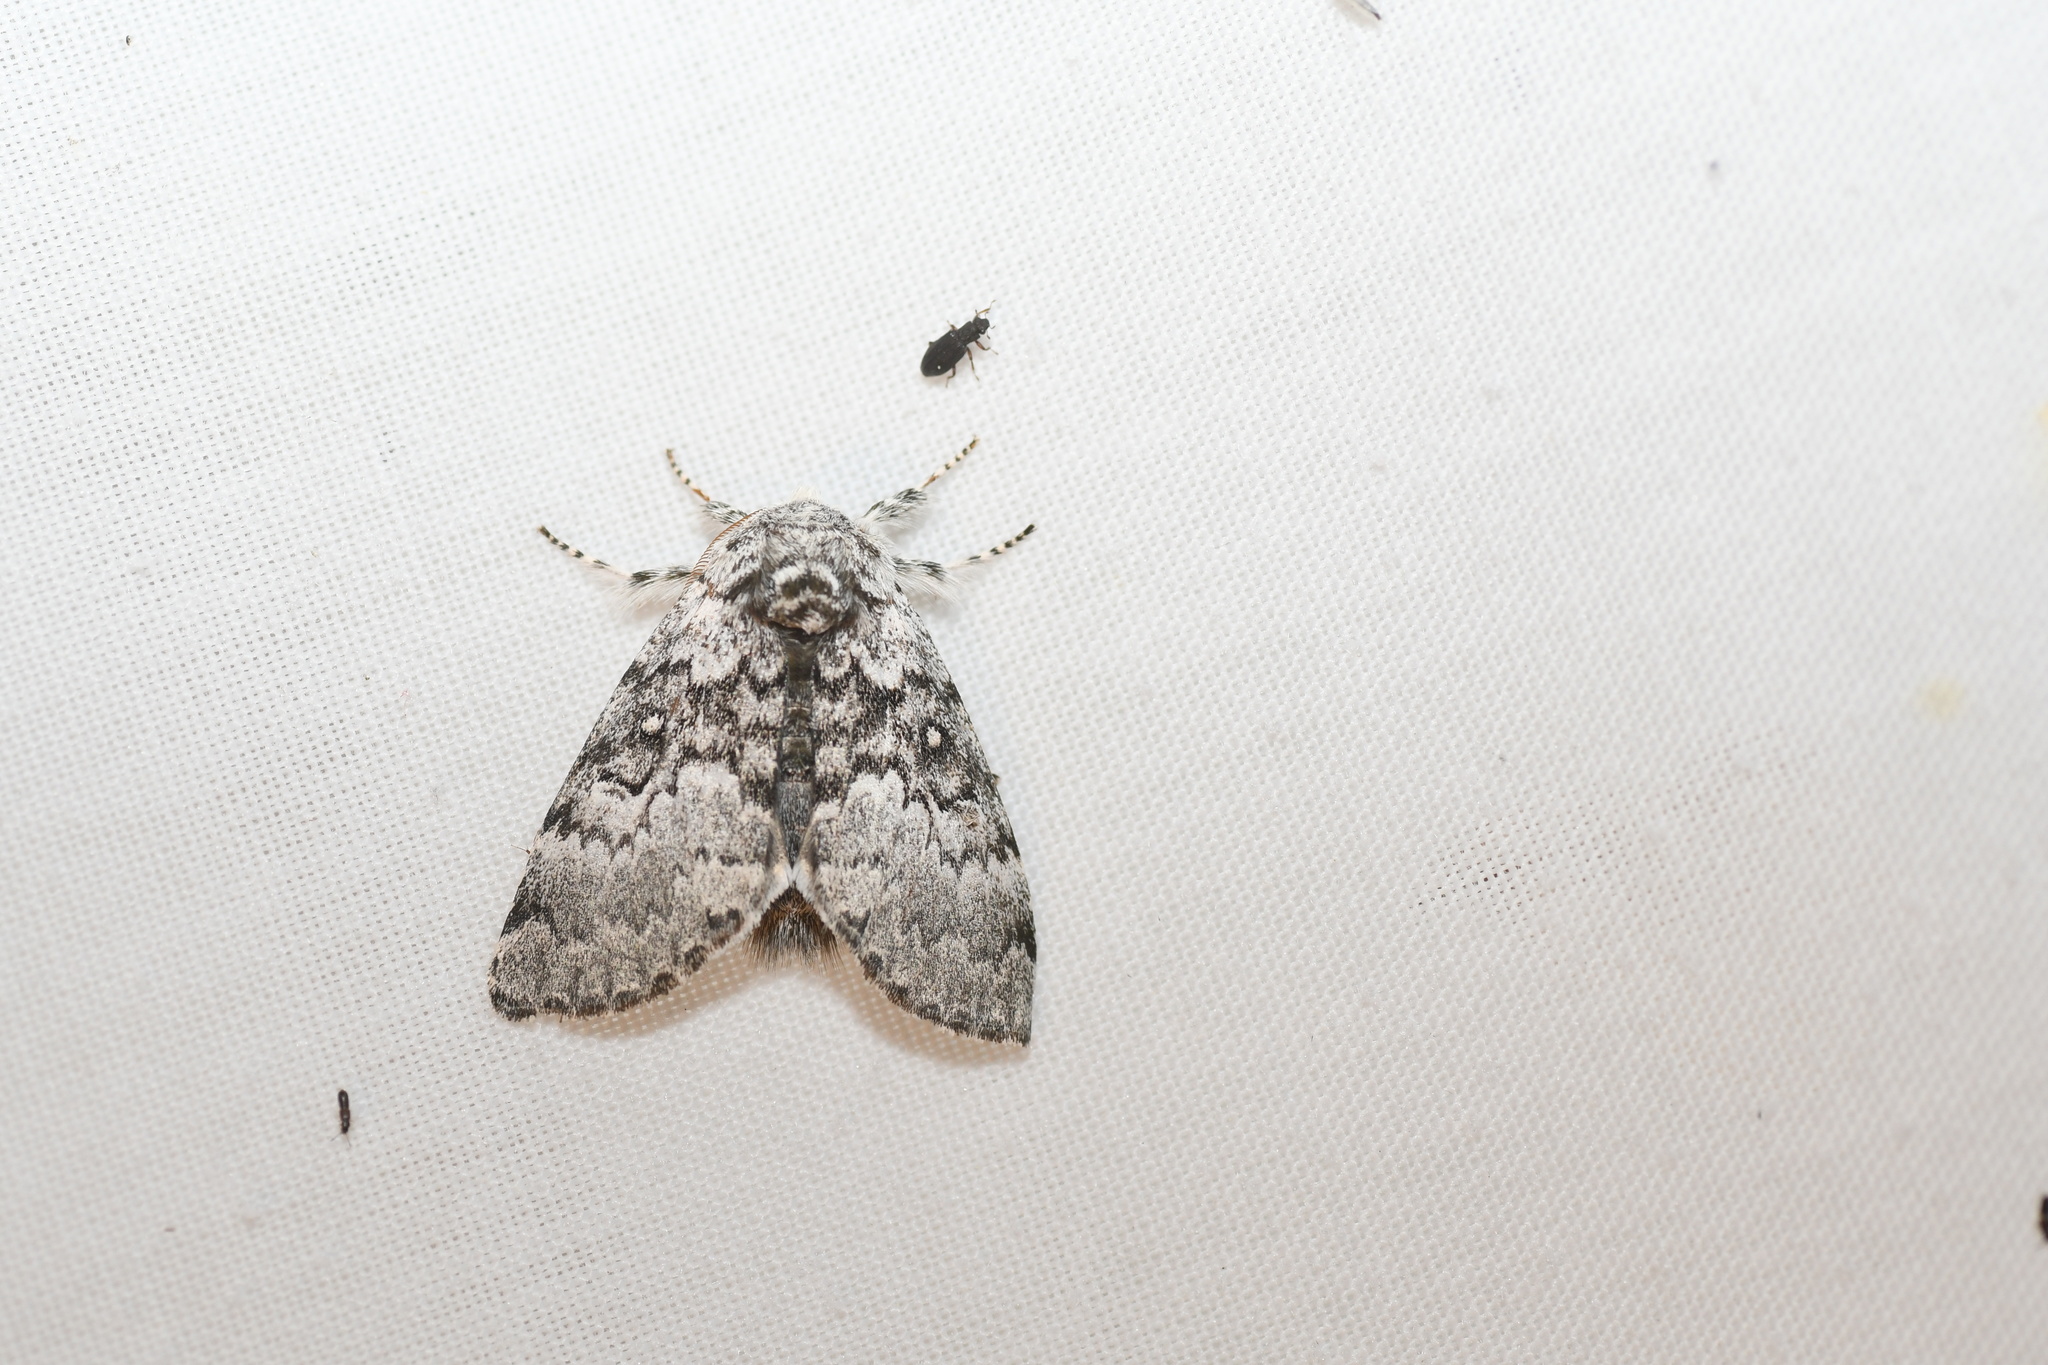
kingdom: Animalia
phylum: Arthropoda
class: Insecta
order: Lepidoptera
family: Noctuidae
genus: Colocasia
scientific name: Colocasia propinquilinea
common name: Close-banded demas
